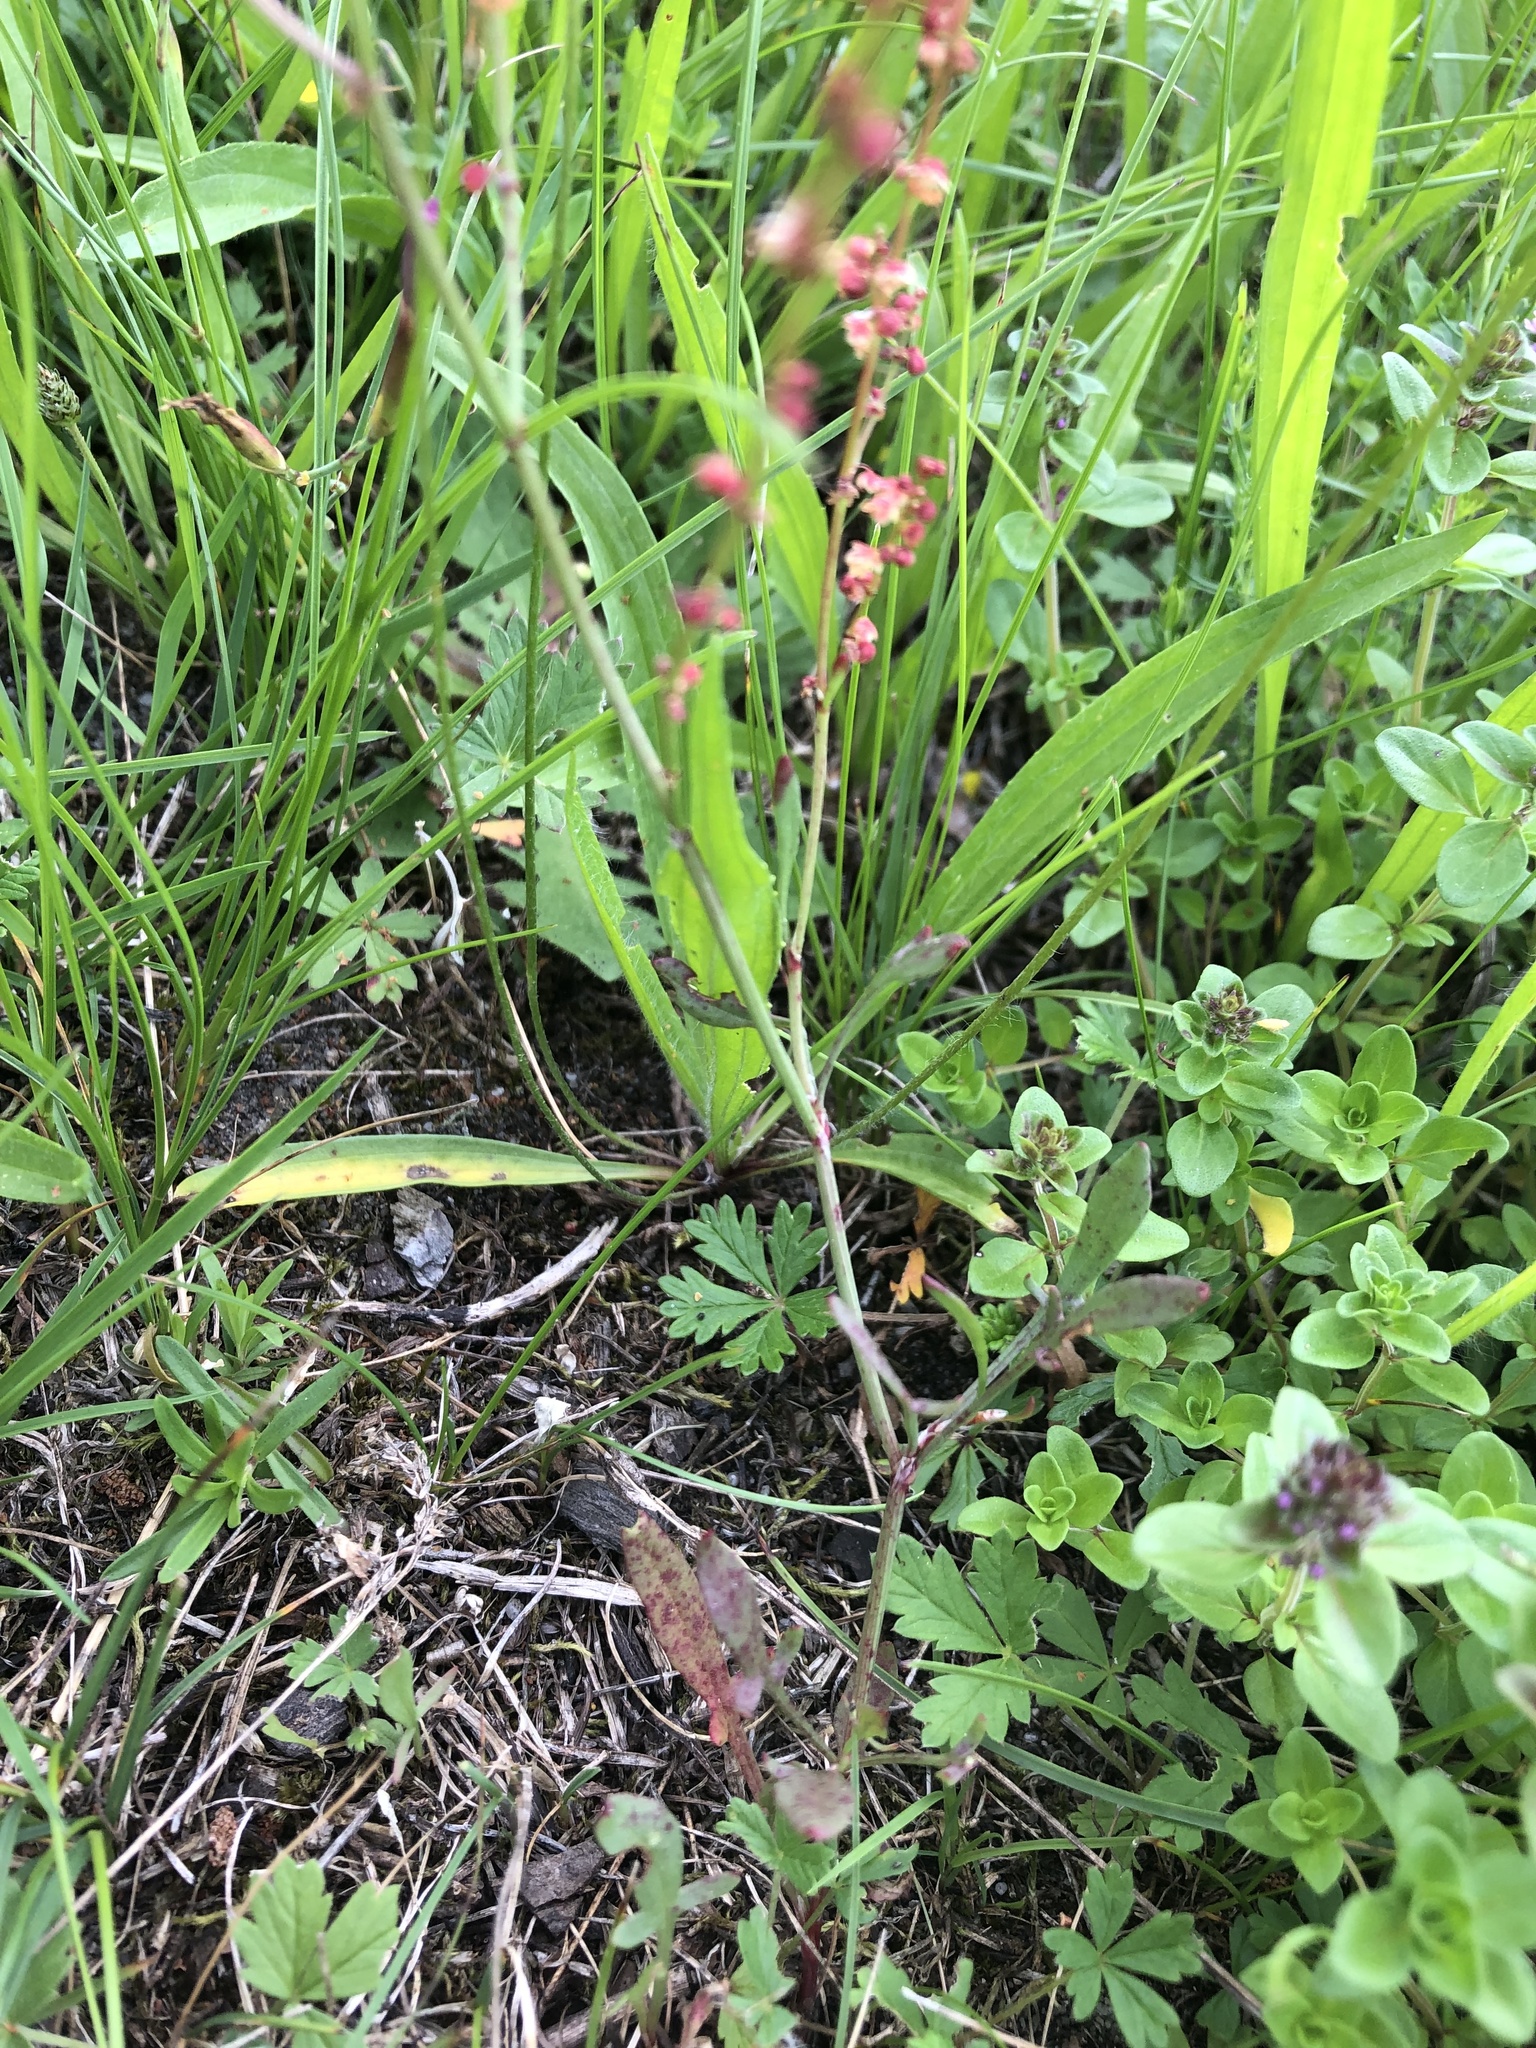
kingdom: Plantae
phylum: Tracheophyta
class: Magnoliopsida
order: Caryophyllales
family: Polygonaceae
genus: Rumex
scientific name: Rumex acetosella
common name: Common sheep sorrel
